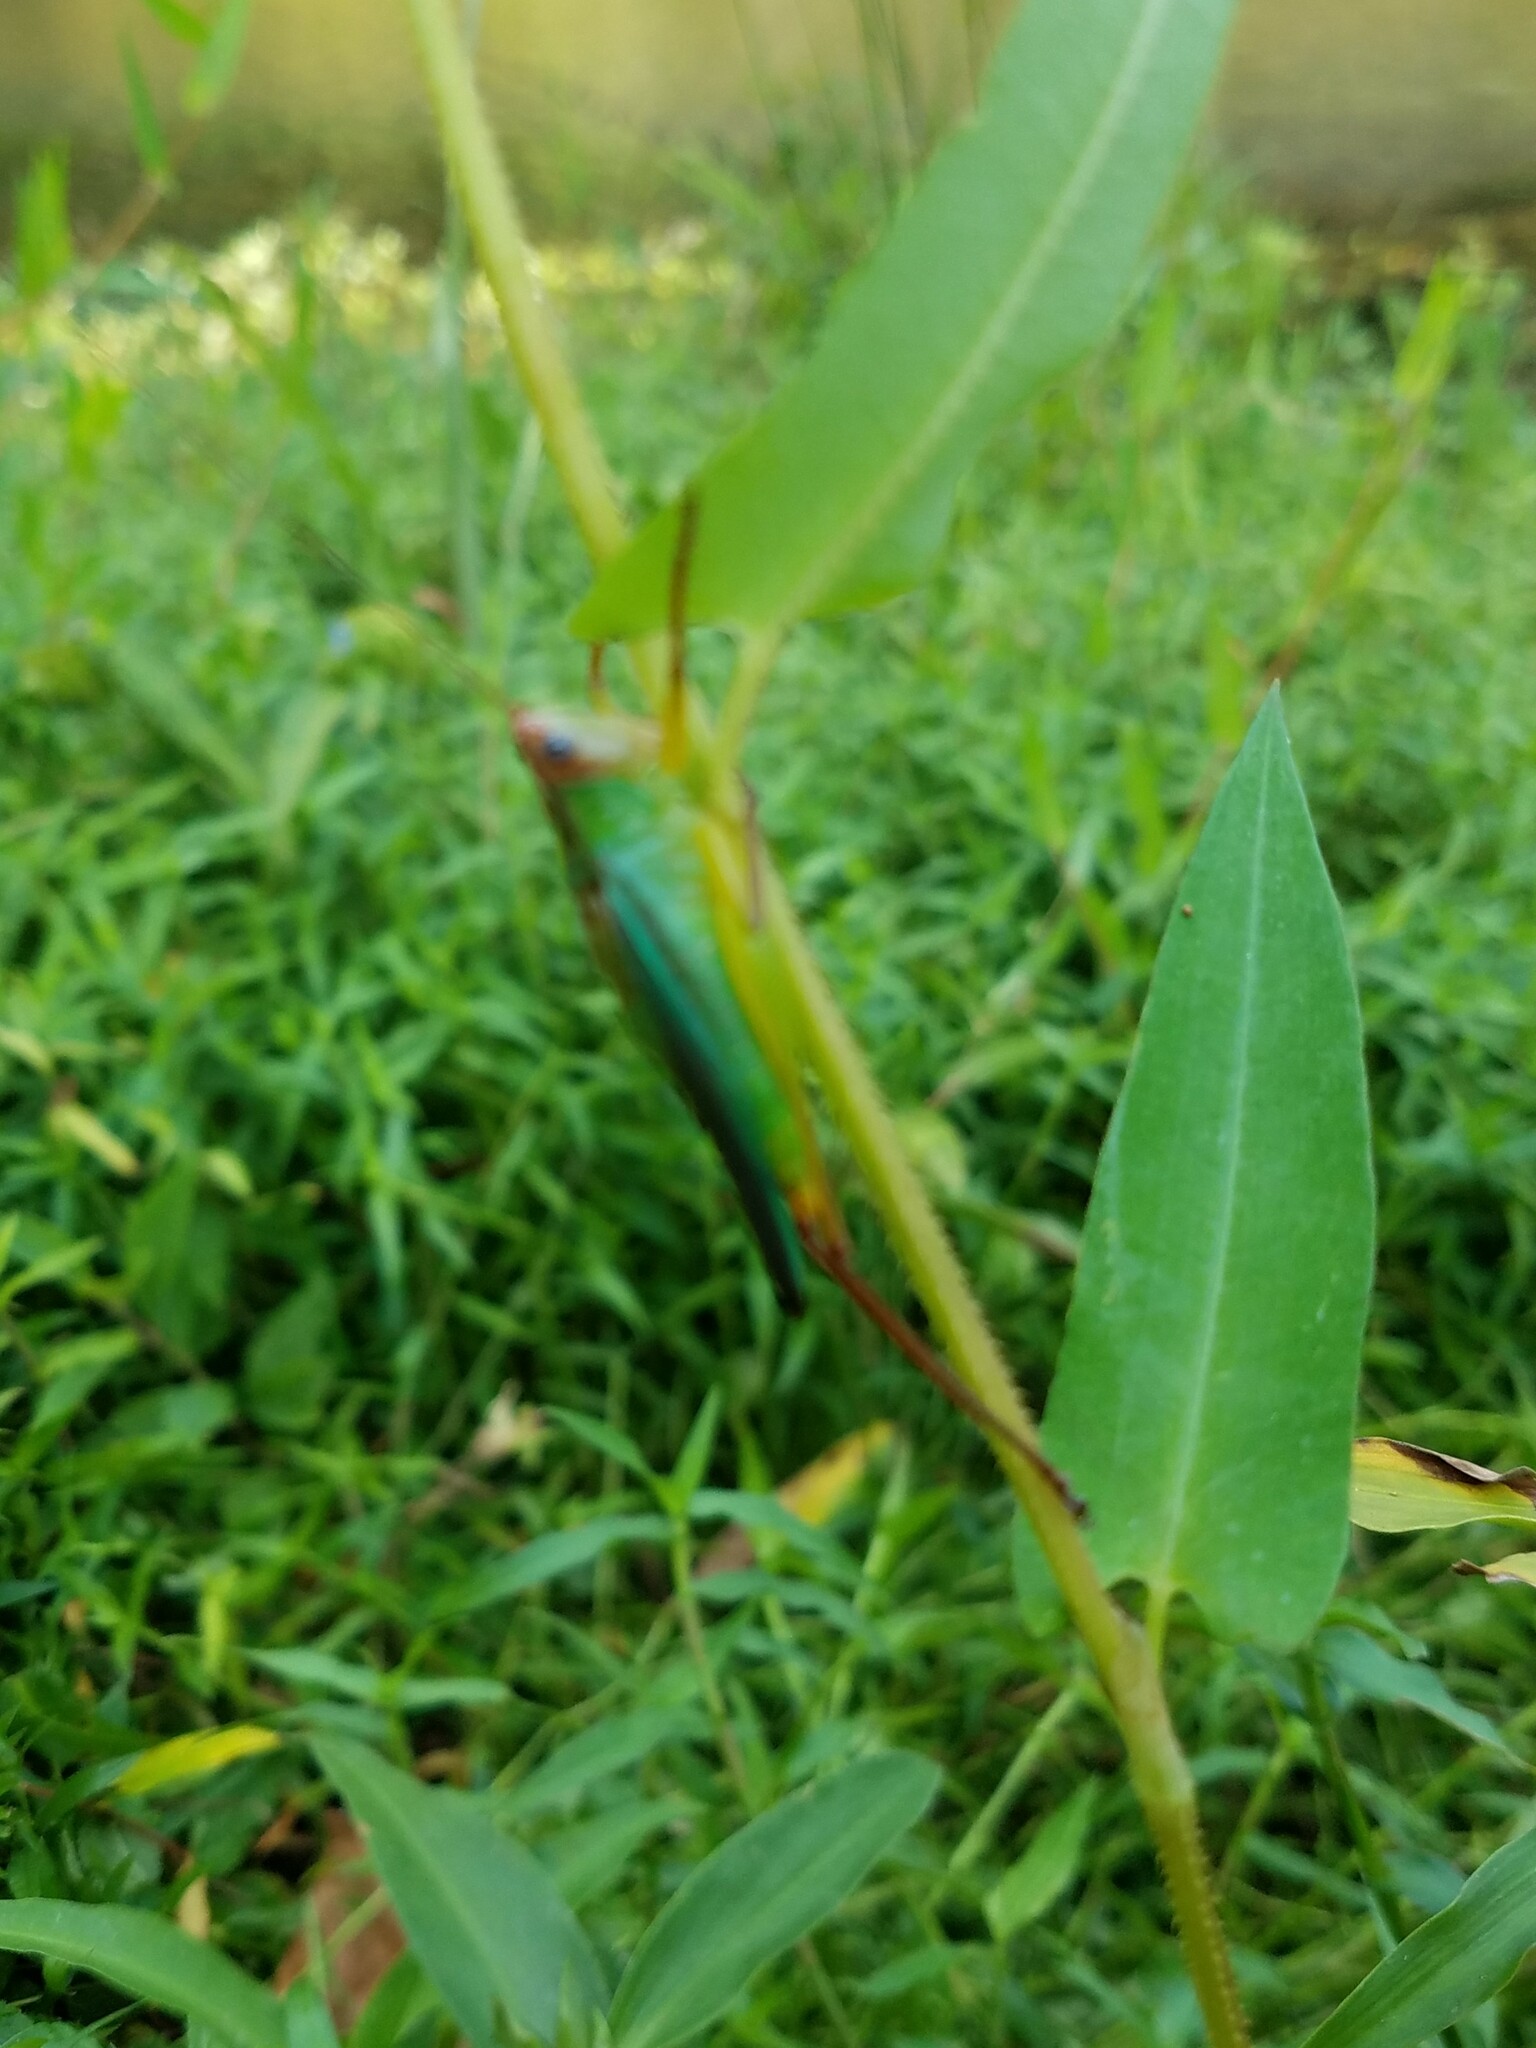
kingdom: Animalia
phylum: Arthropoda
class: Insecta
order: Orthoptera
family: Tettigoniidae
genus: Orchelimum
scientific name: Orchelimum pulchellum
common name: Handsome meadow katydid
